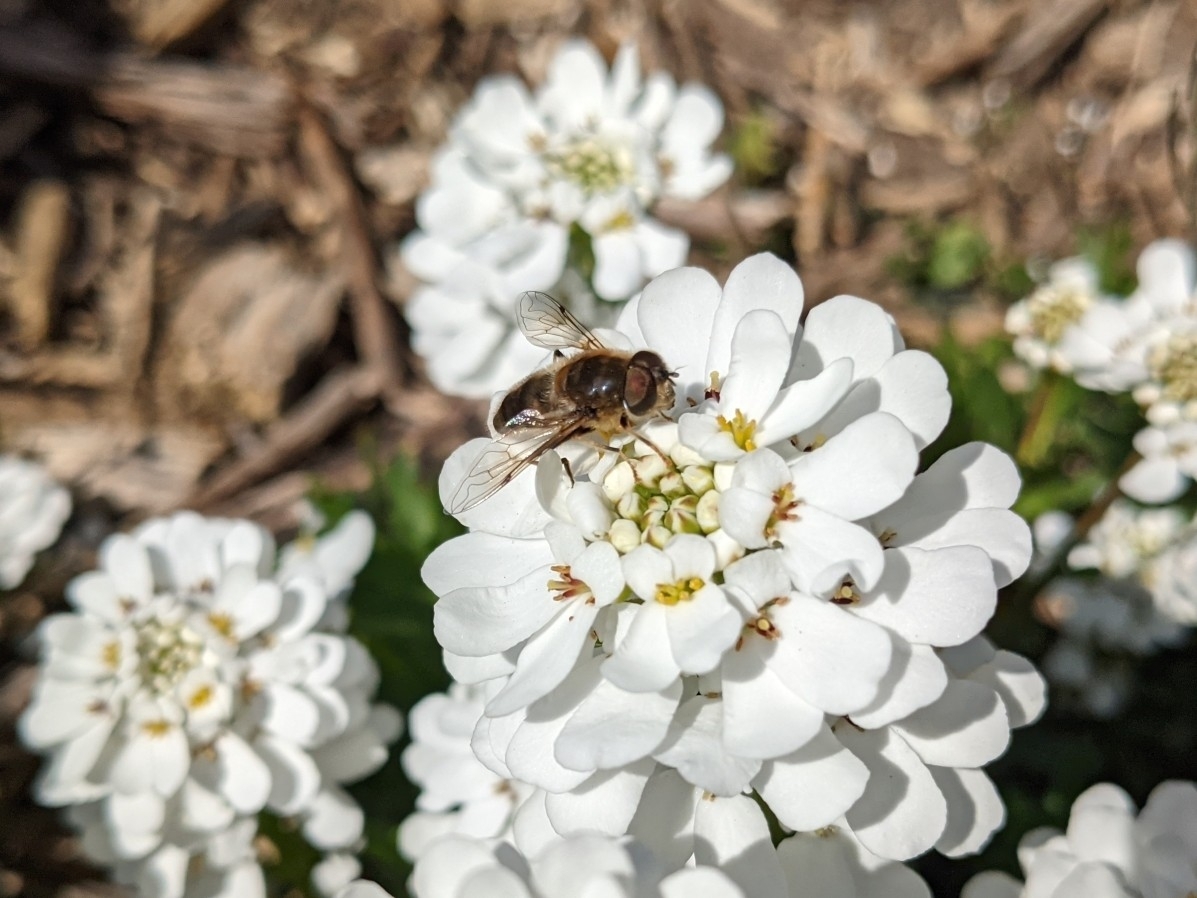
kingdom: Animalia
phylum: Arthropoda
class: Insecta
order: Diptera
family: Syrphidae
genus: Eristalis
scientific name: Eristalis pertinax
